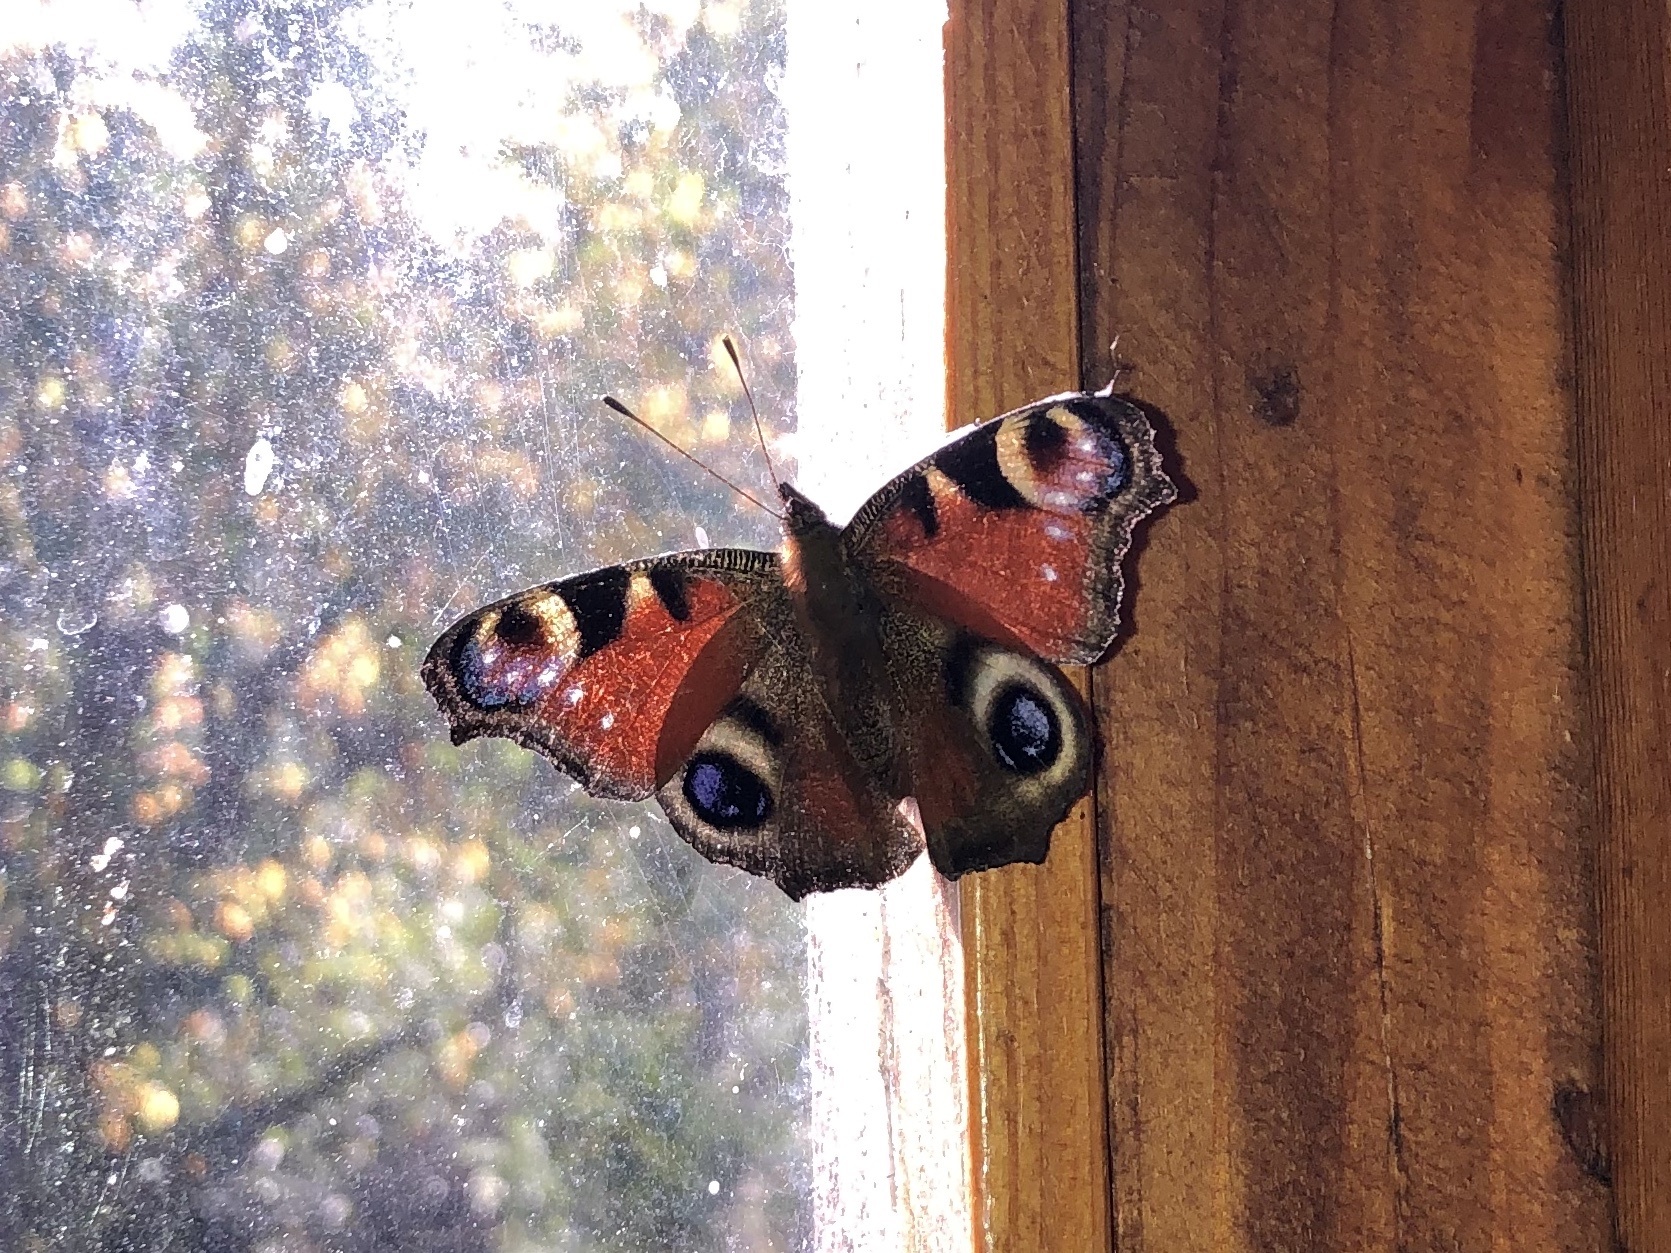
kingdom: Animalia
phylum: Arthropoda
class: Insecta
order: Lepidoptera
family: Nymphalidae
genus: Aglais
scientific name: Aglais io
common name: Peacock
